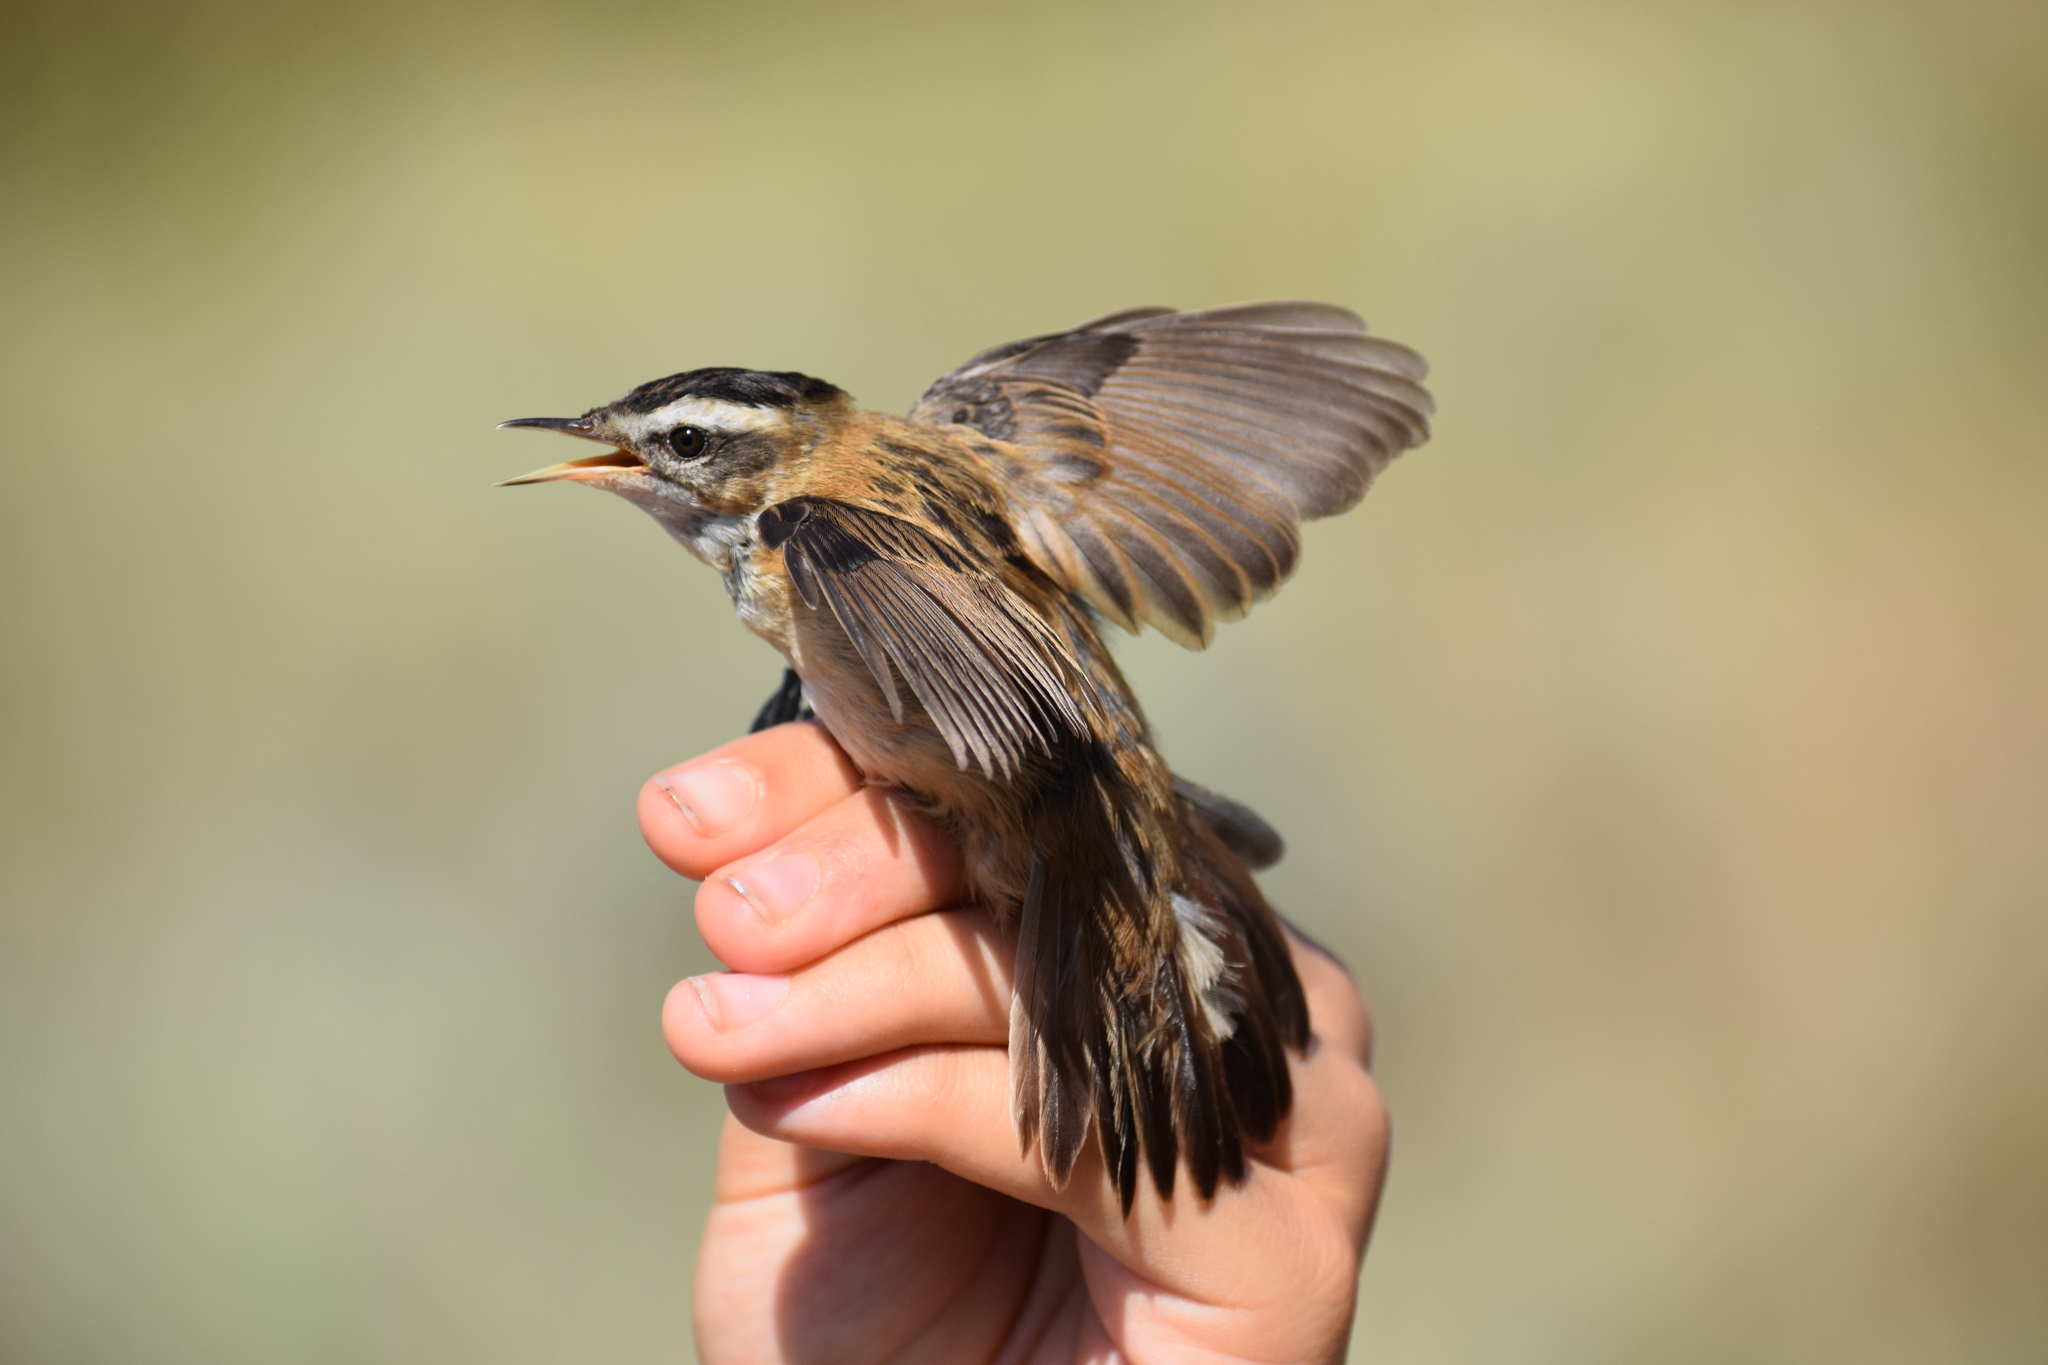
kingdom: Animalia
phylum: Chordata
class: Aves
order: Passeriformes
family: Acrocephalidae
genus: Acrocephalus
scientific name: Acrocephalus melanopogon
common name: Moustached warbler
